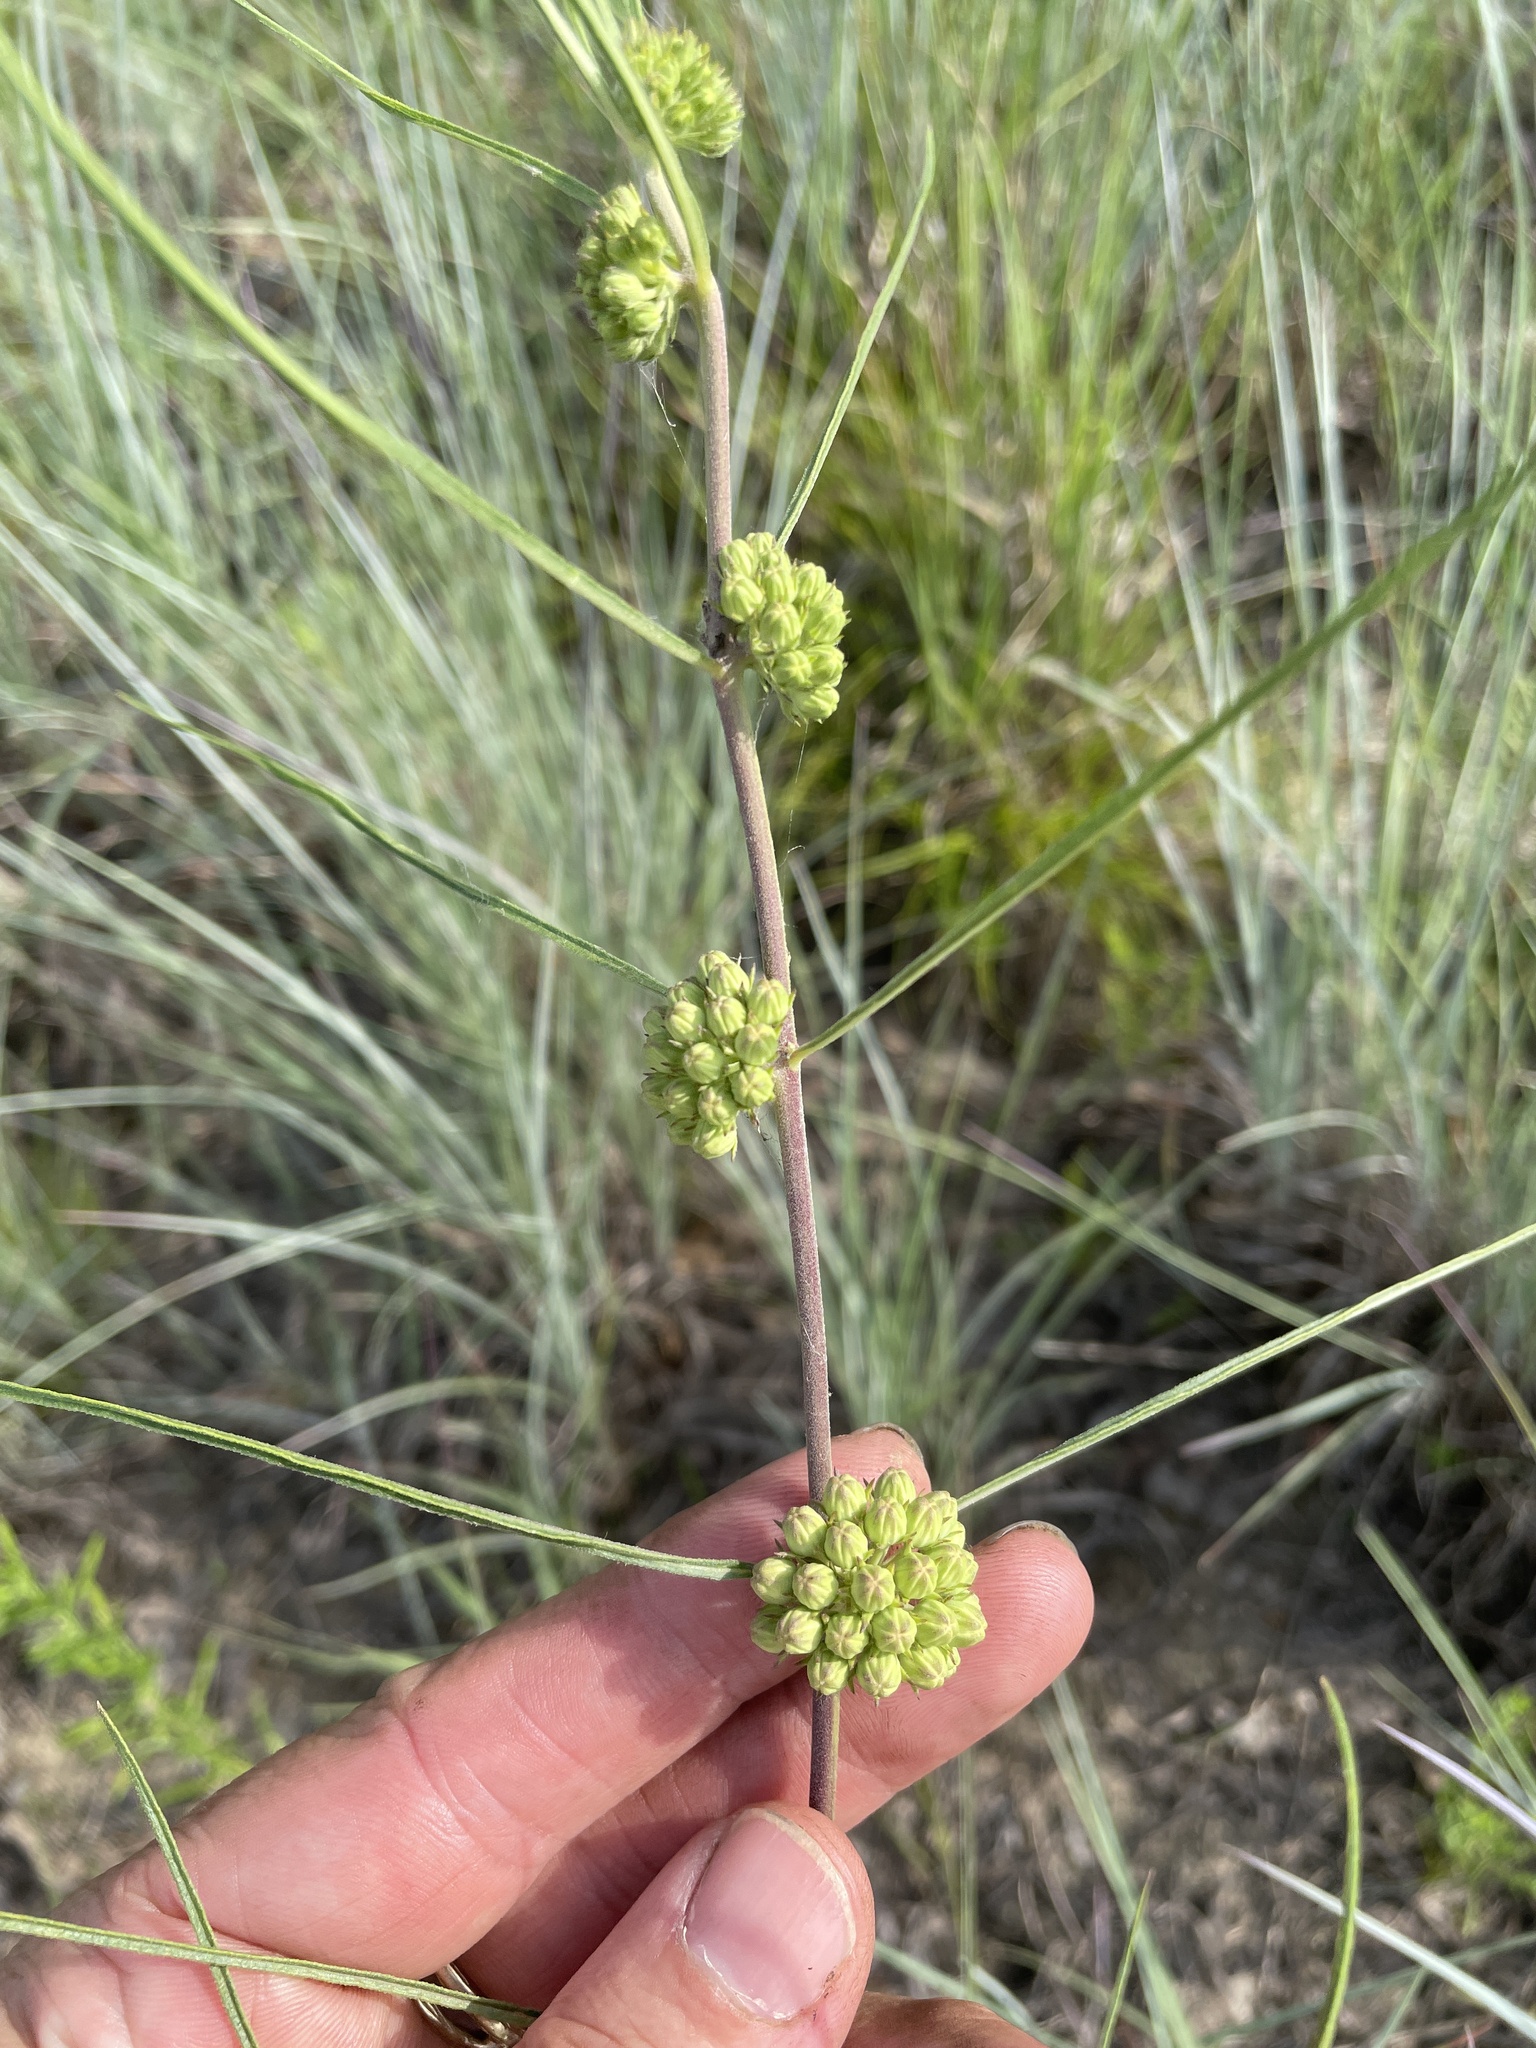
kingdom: Plantae
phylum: Tracheophyta
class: Magnoliopsida
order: Gentianales
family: Apocynaceae
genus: Asclepias
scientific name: Asclepias stenophylla
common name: Narrow-leaf milkweed
